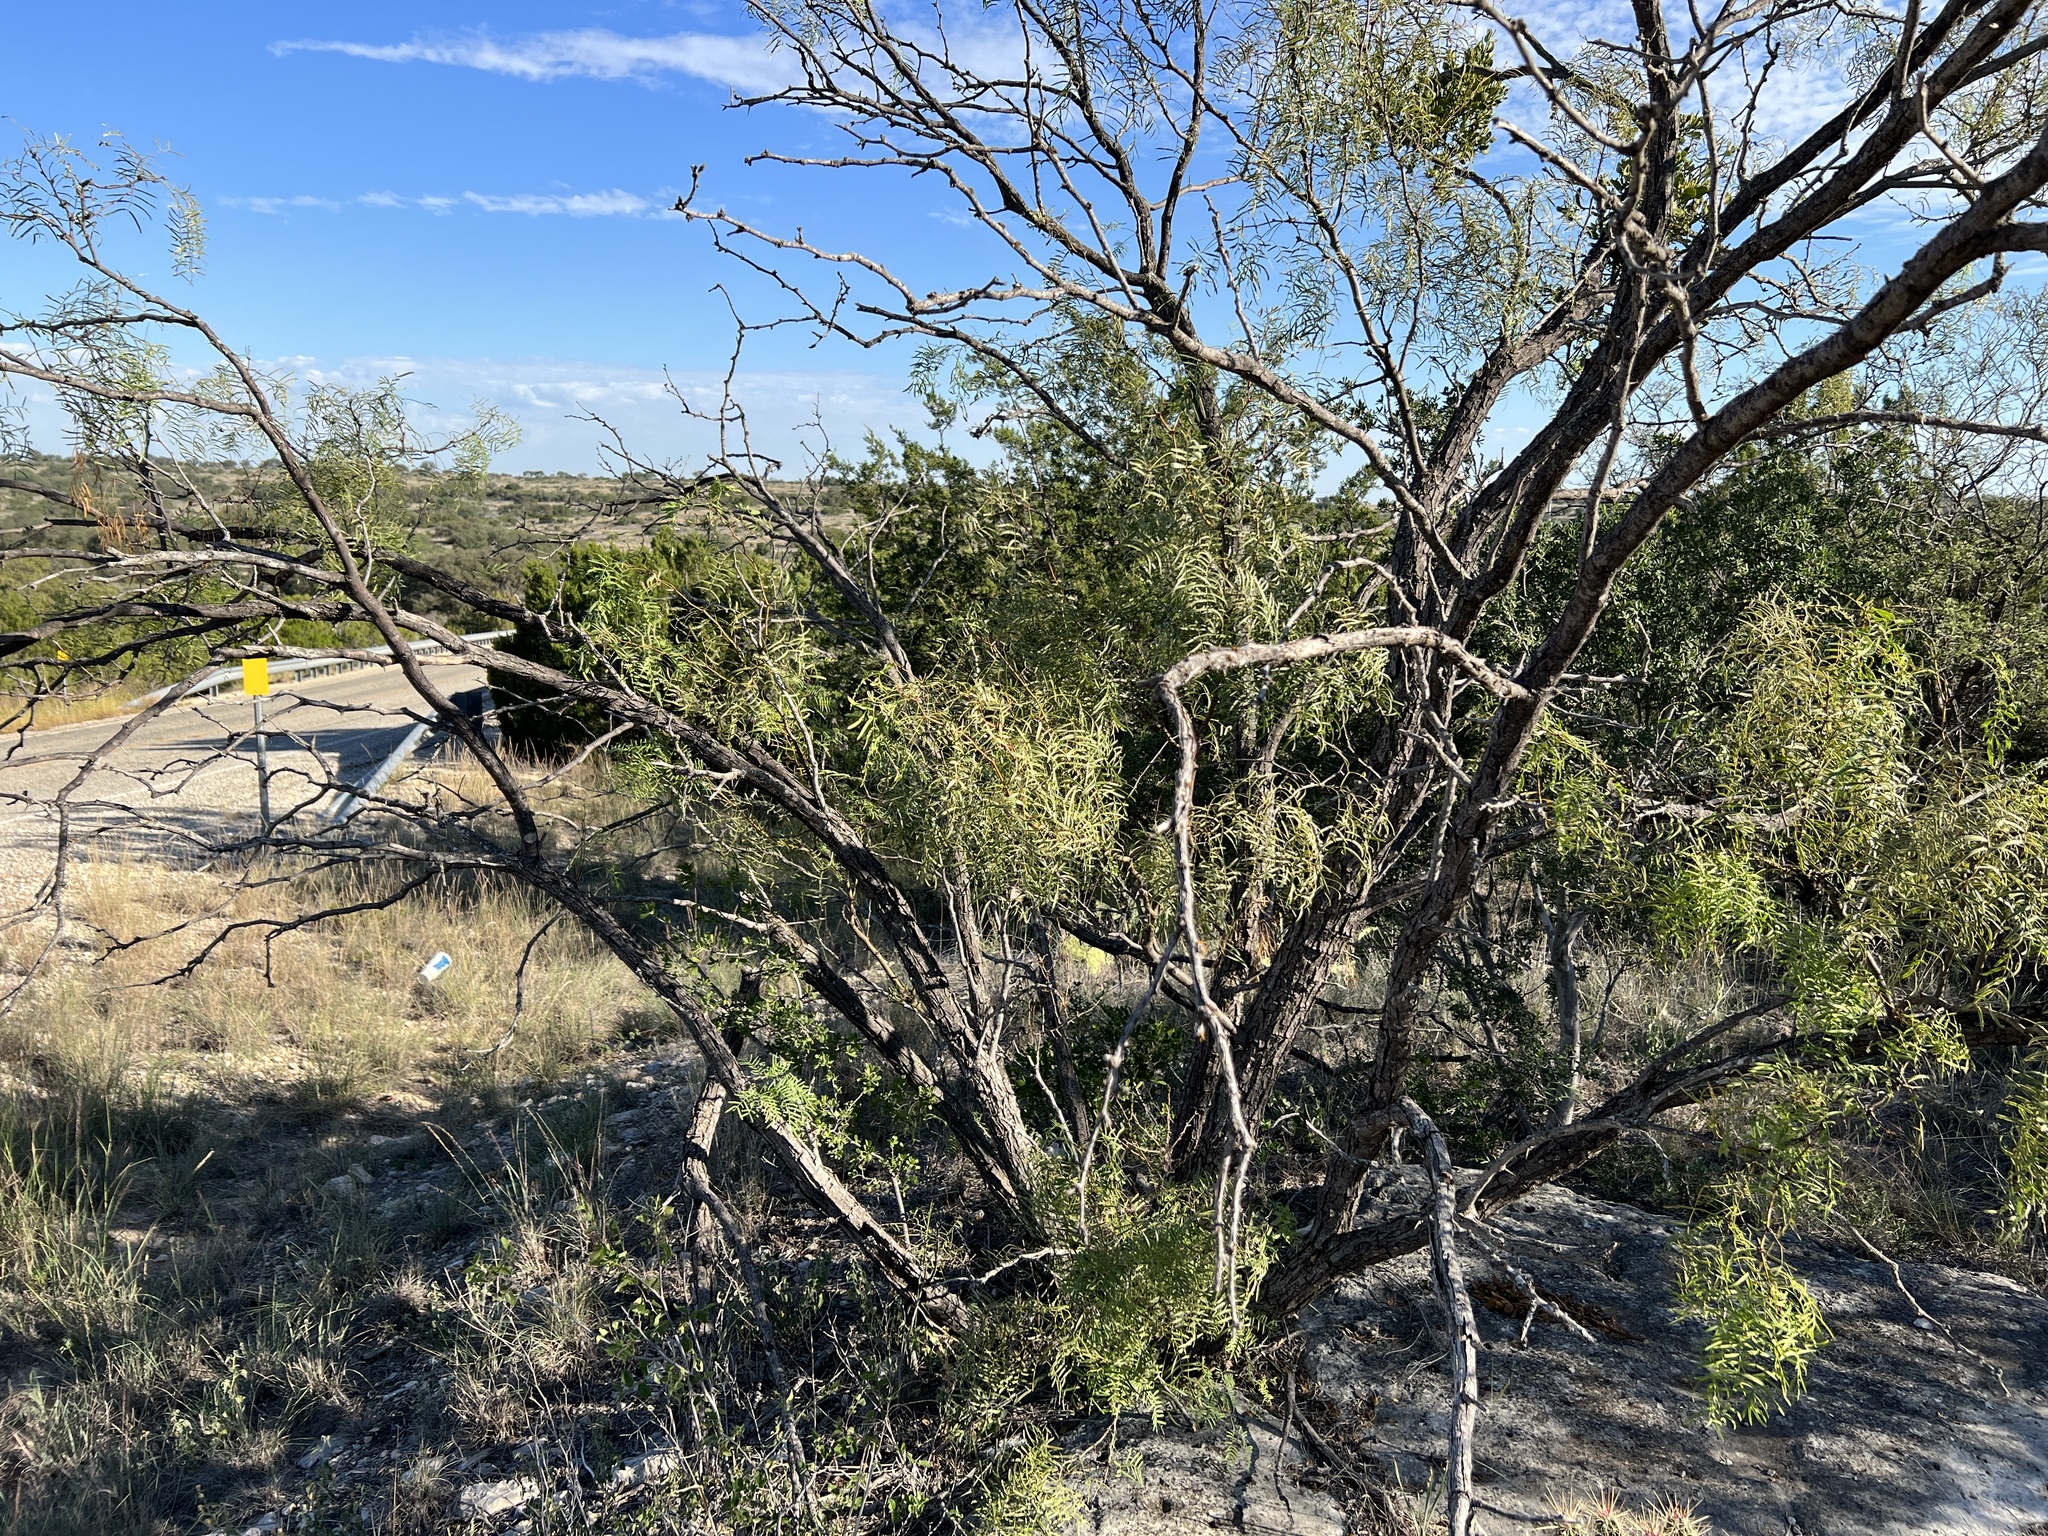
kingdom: Plantae
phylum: Tracheophyta
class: Magnoliopsida
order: Fabales
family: Fabaceae
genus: Prosopis
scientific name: Prosopis glandulosa
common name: Honey mesquite
